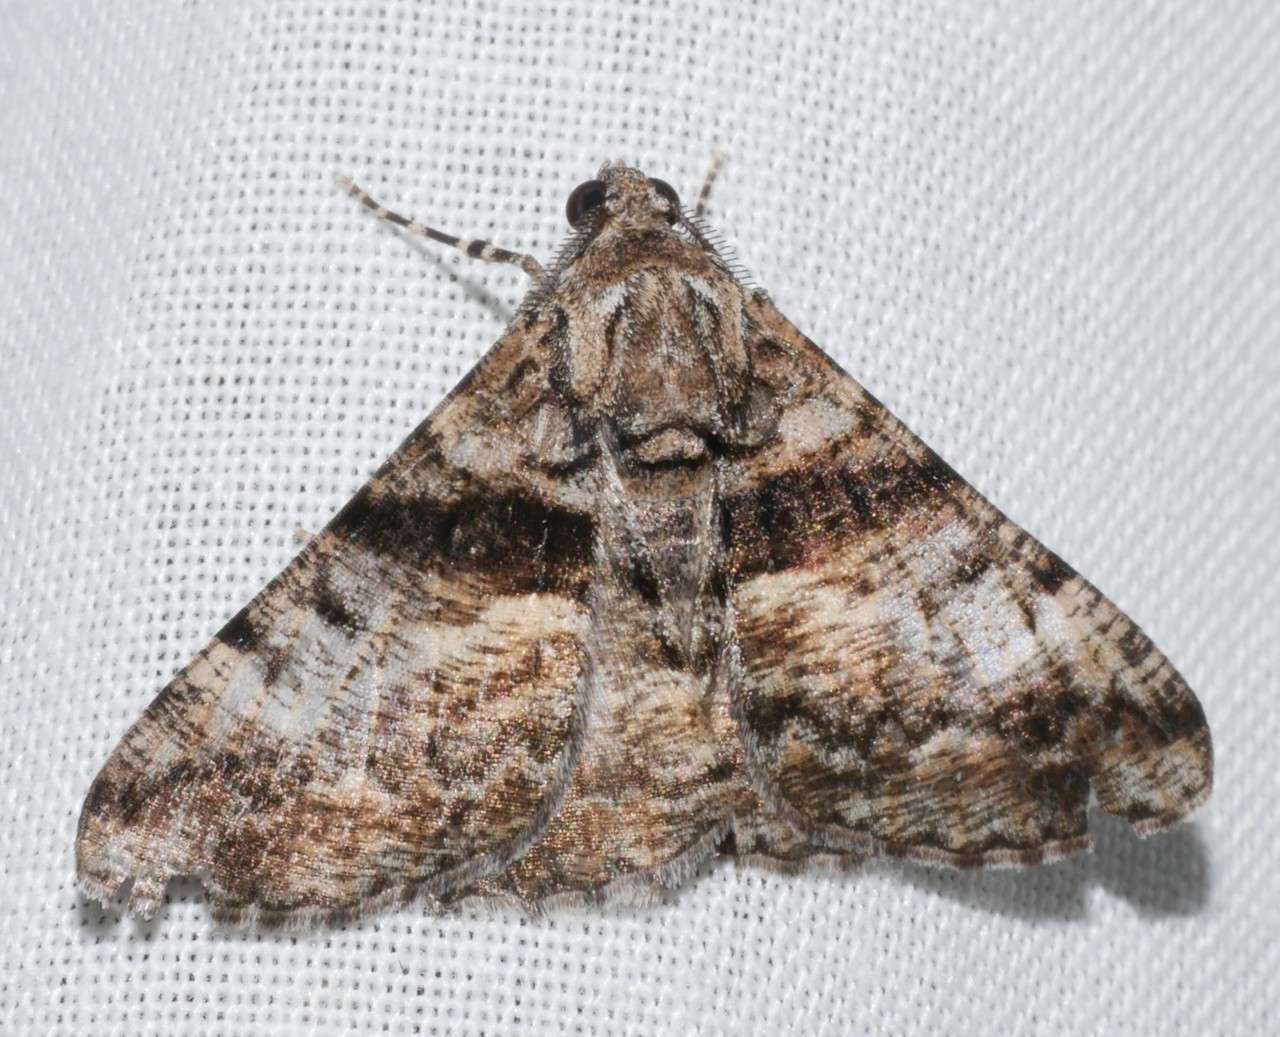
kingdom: Animalia
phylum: Arthropoda
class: Insecta
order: Lepidoptera
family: Geometridae
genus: Gastrinodes
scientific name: Gastrinodes argoplaca
